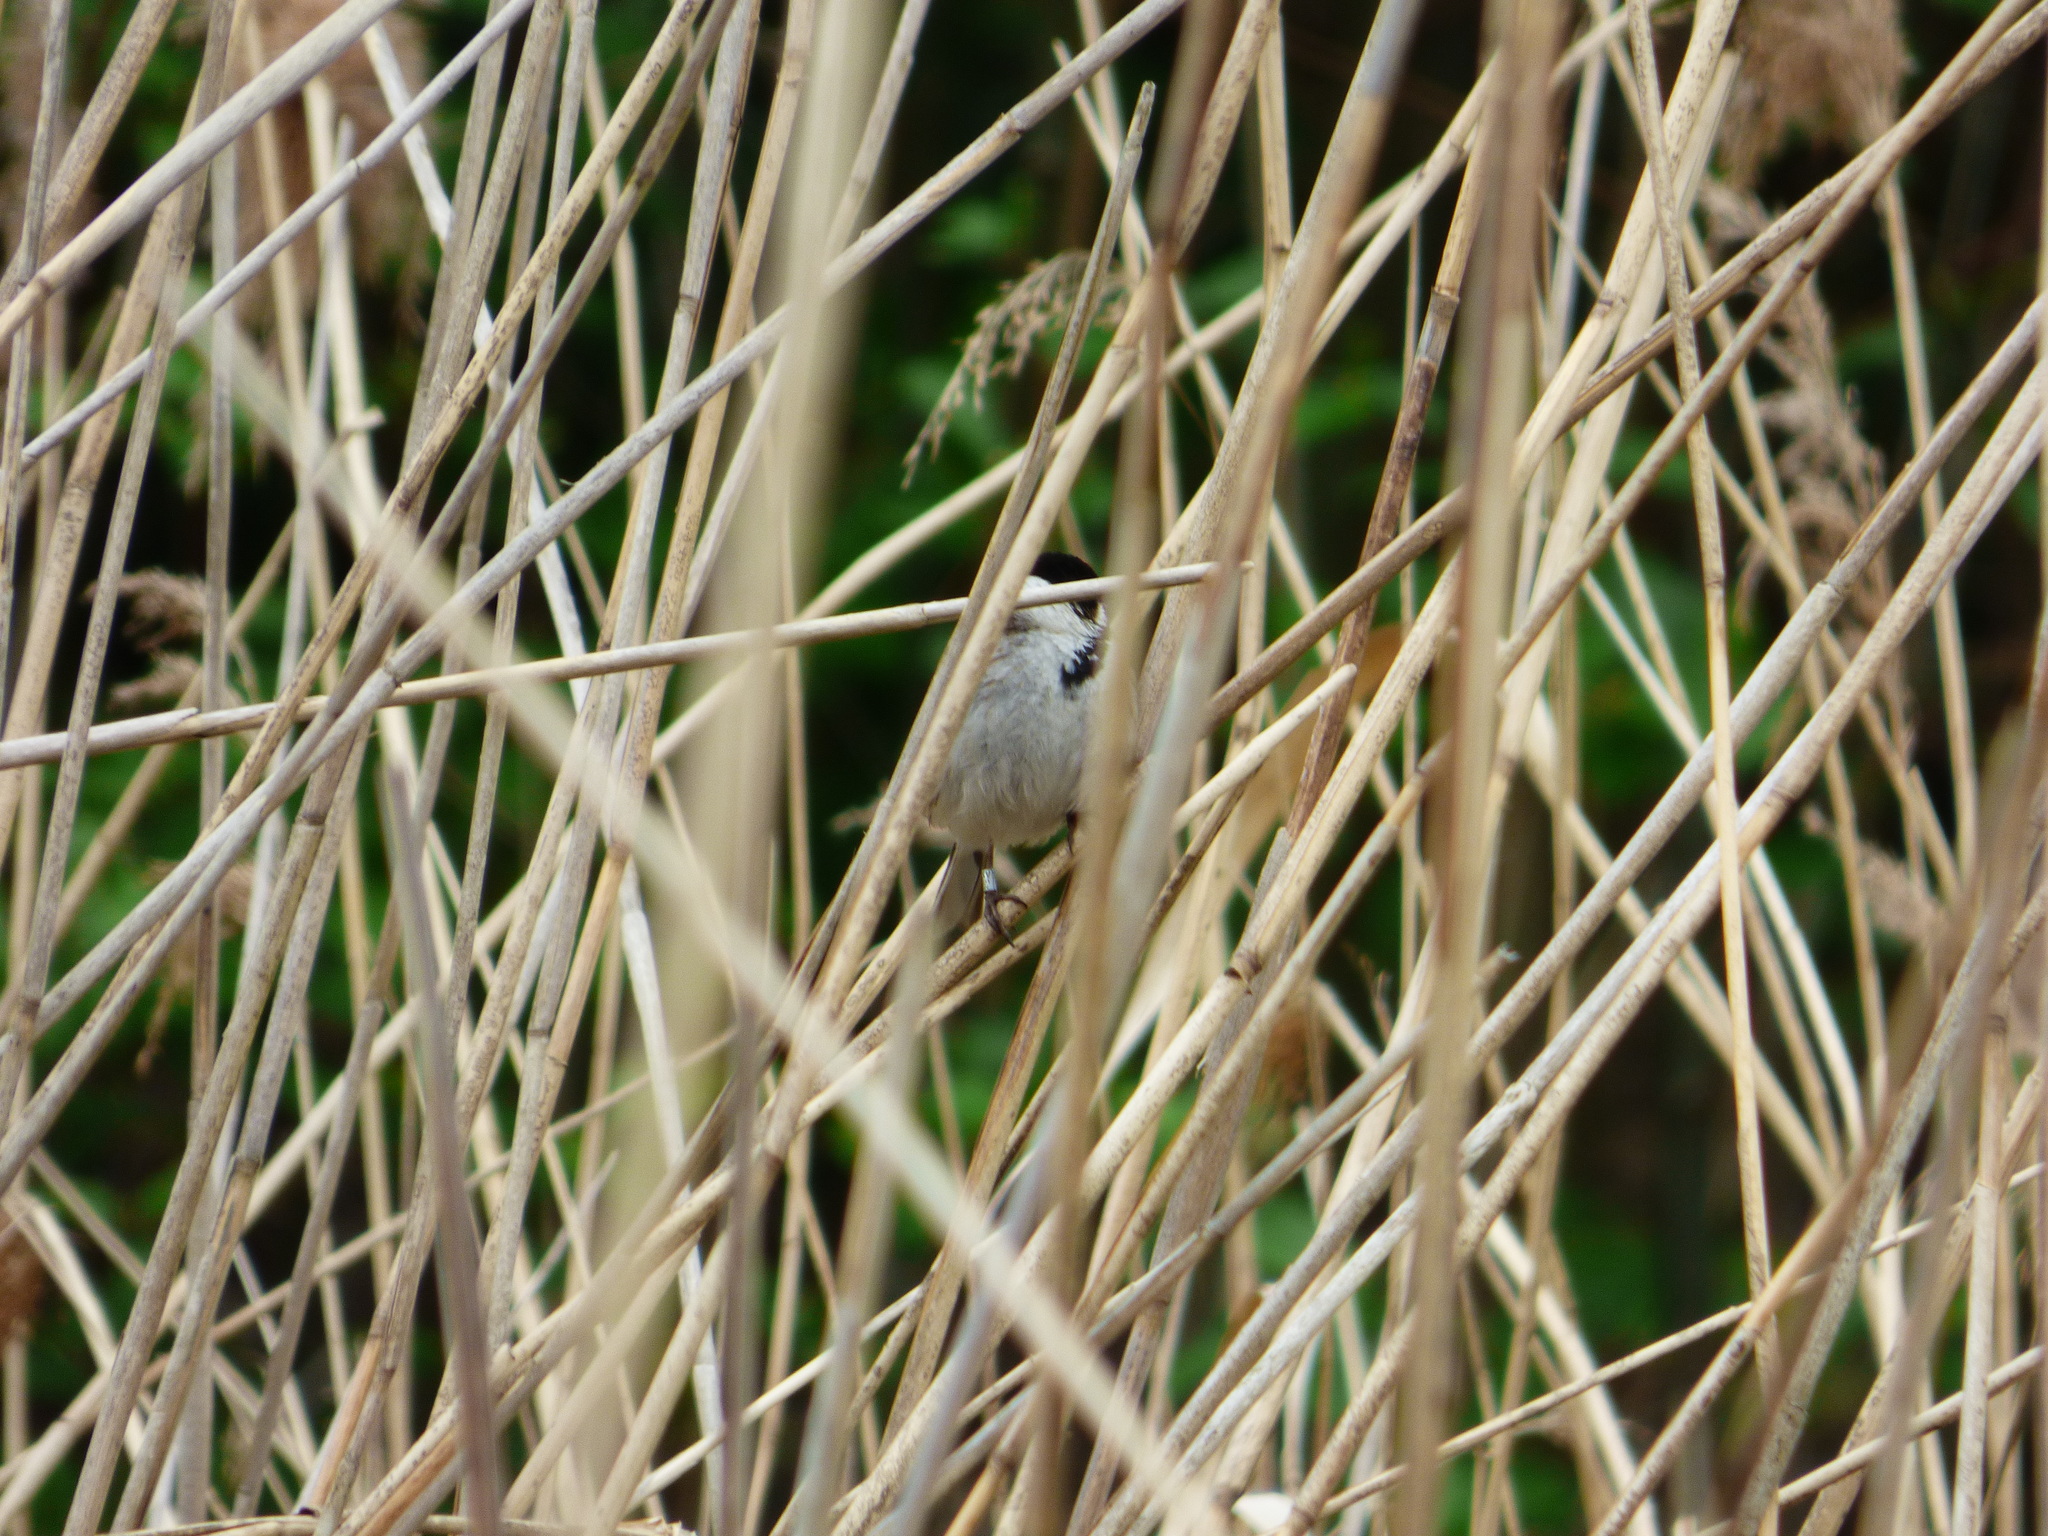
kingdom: Animalia
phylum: Chordata
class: Aves
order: Passeriformes
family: Emberizidae
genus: Emberiza
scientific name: Emberiza schoeniclus
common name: Reed bunting
